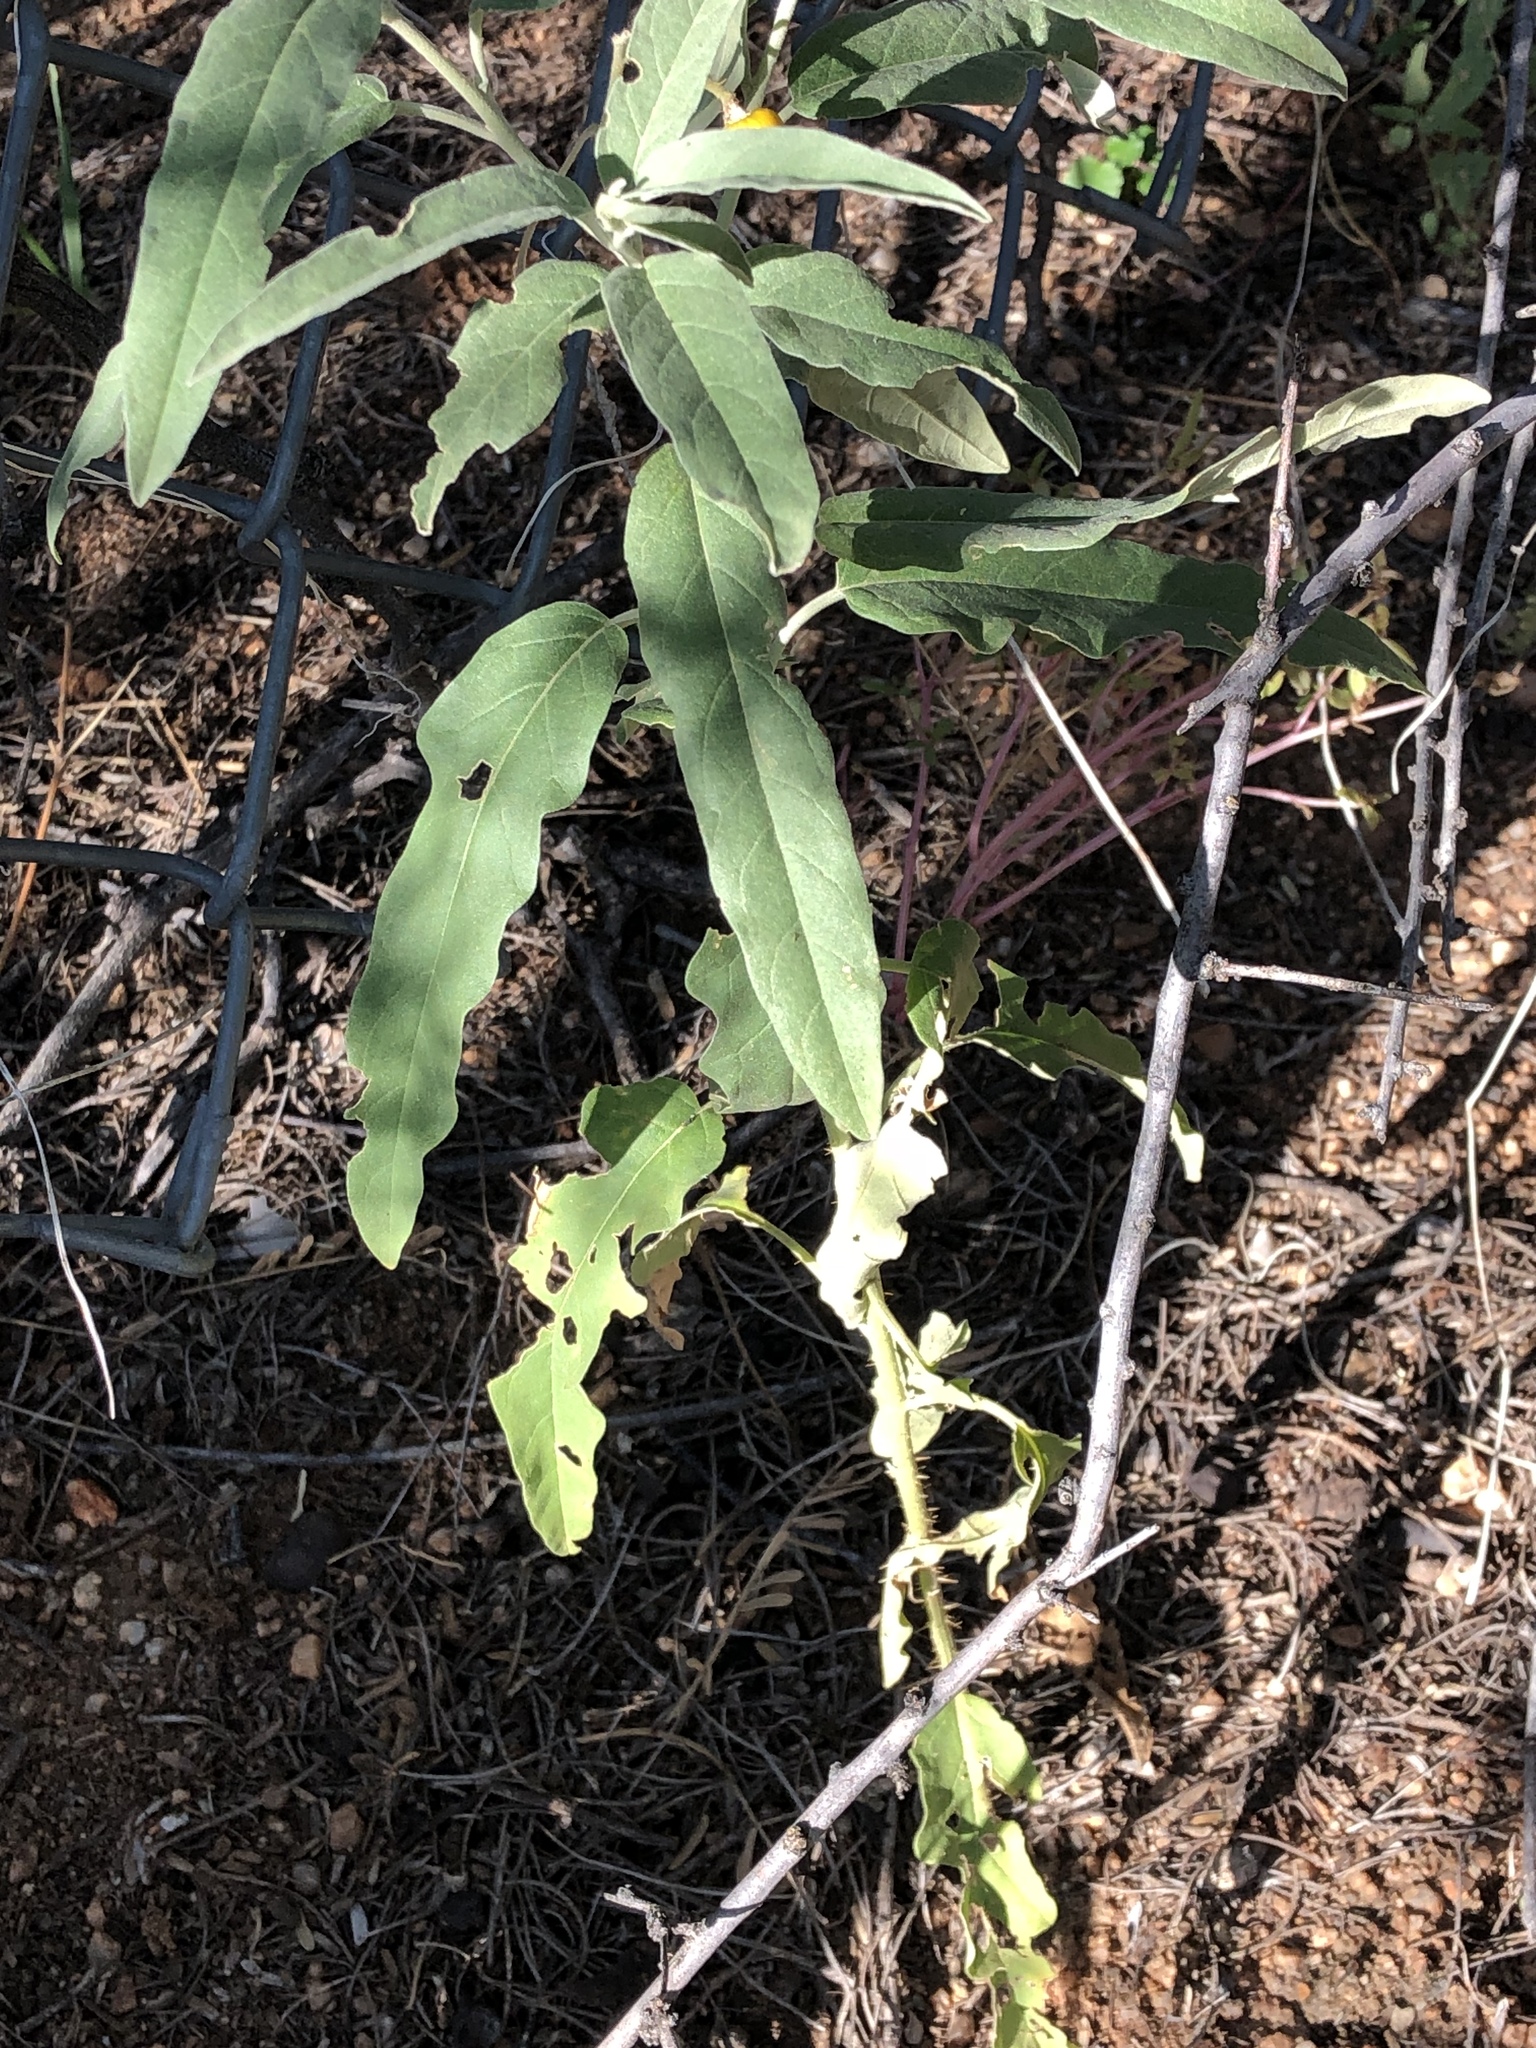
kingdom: Plantae
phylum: Tracheophyta
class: Magnoliopsida
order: Solanales
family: Solanaceae
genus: Solanum
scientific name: Solanum elaeagnifolium
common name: Silverleaf nightshade
